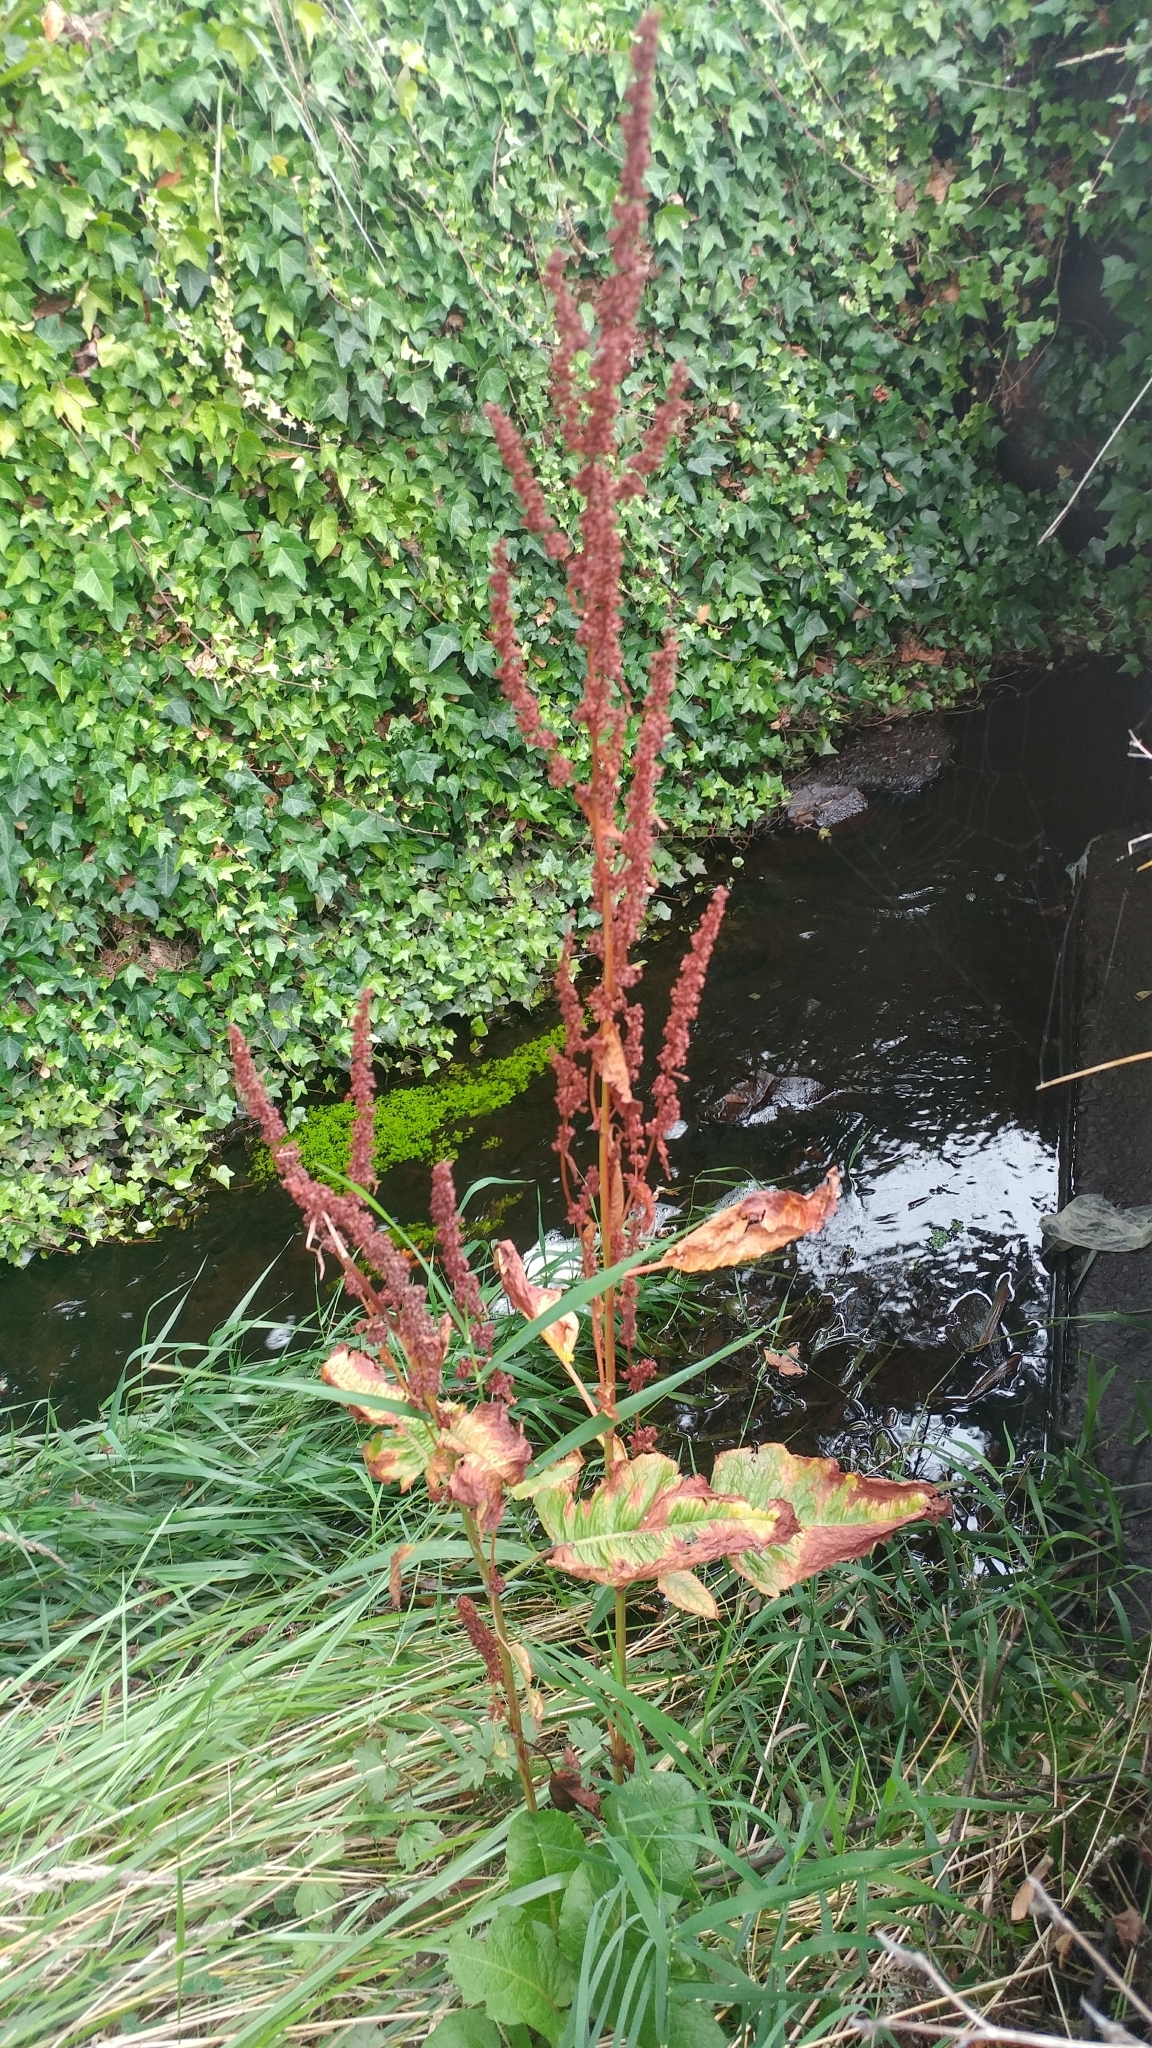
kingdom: Plantae
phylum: Tracheophyta
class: Magnoliopsida
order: Caryophyllales
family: Polygonaceae
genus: Rumex
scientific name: Rumex crispus
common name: Curled dock
